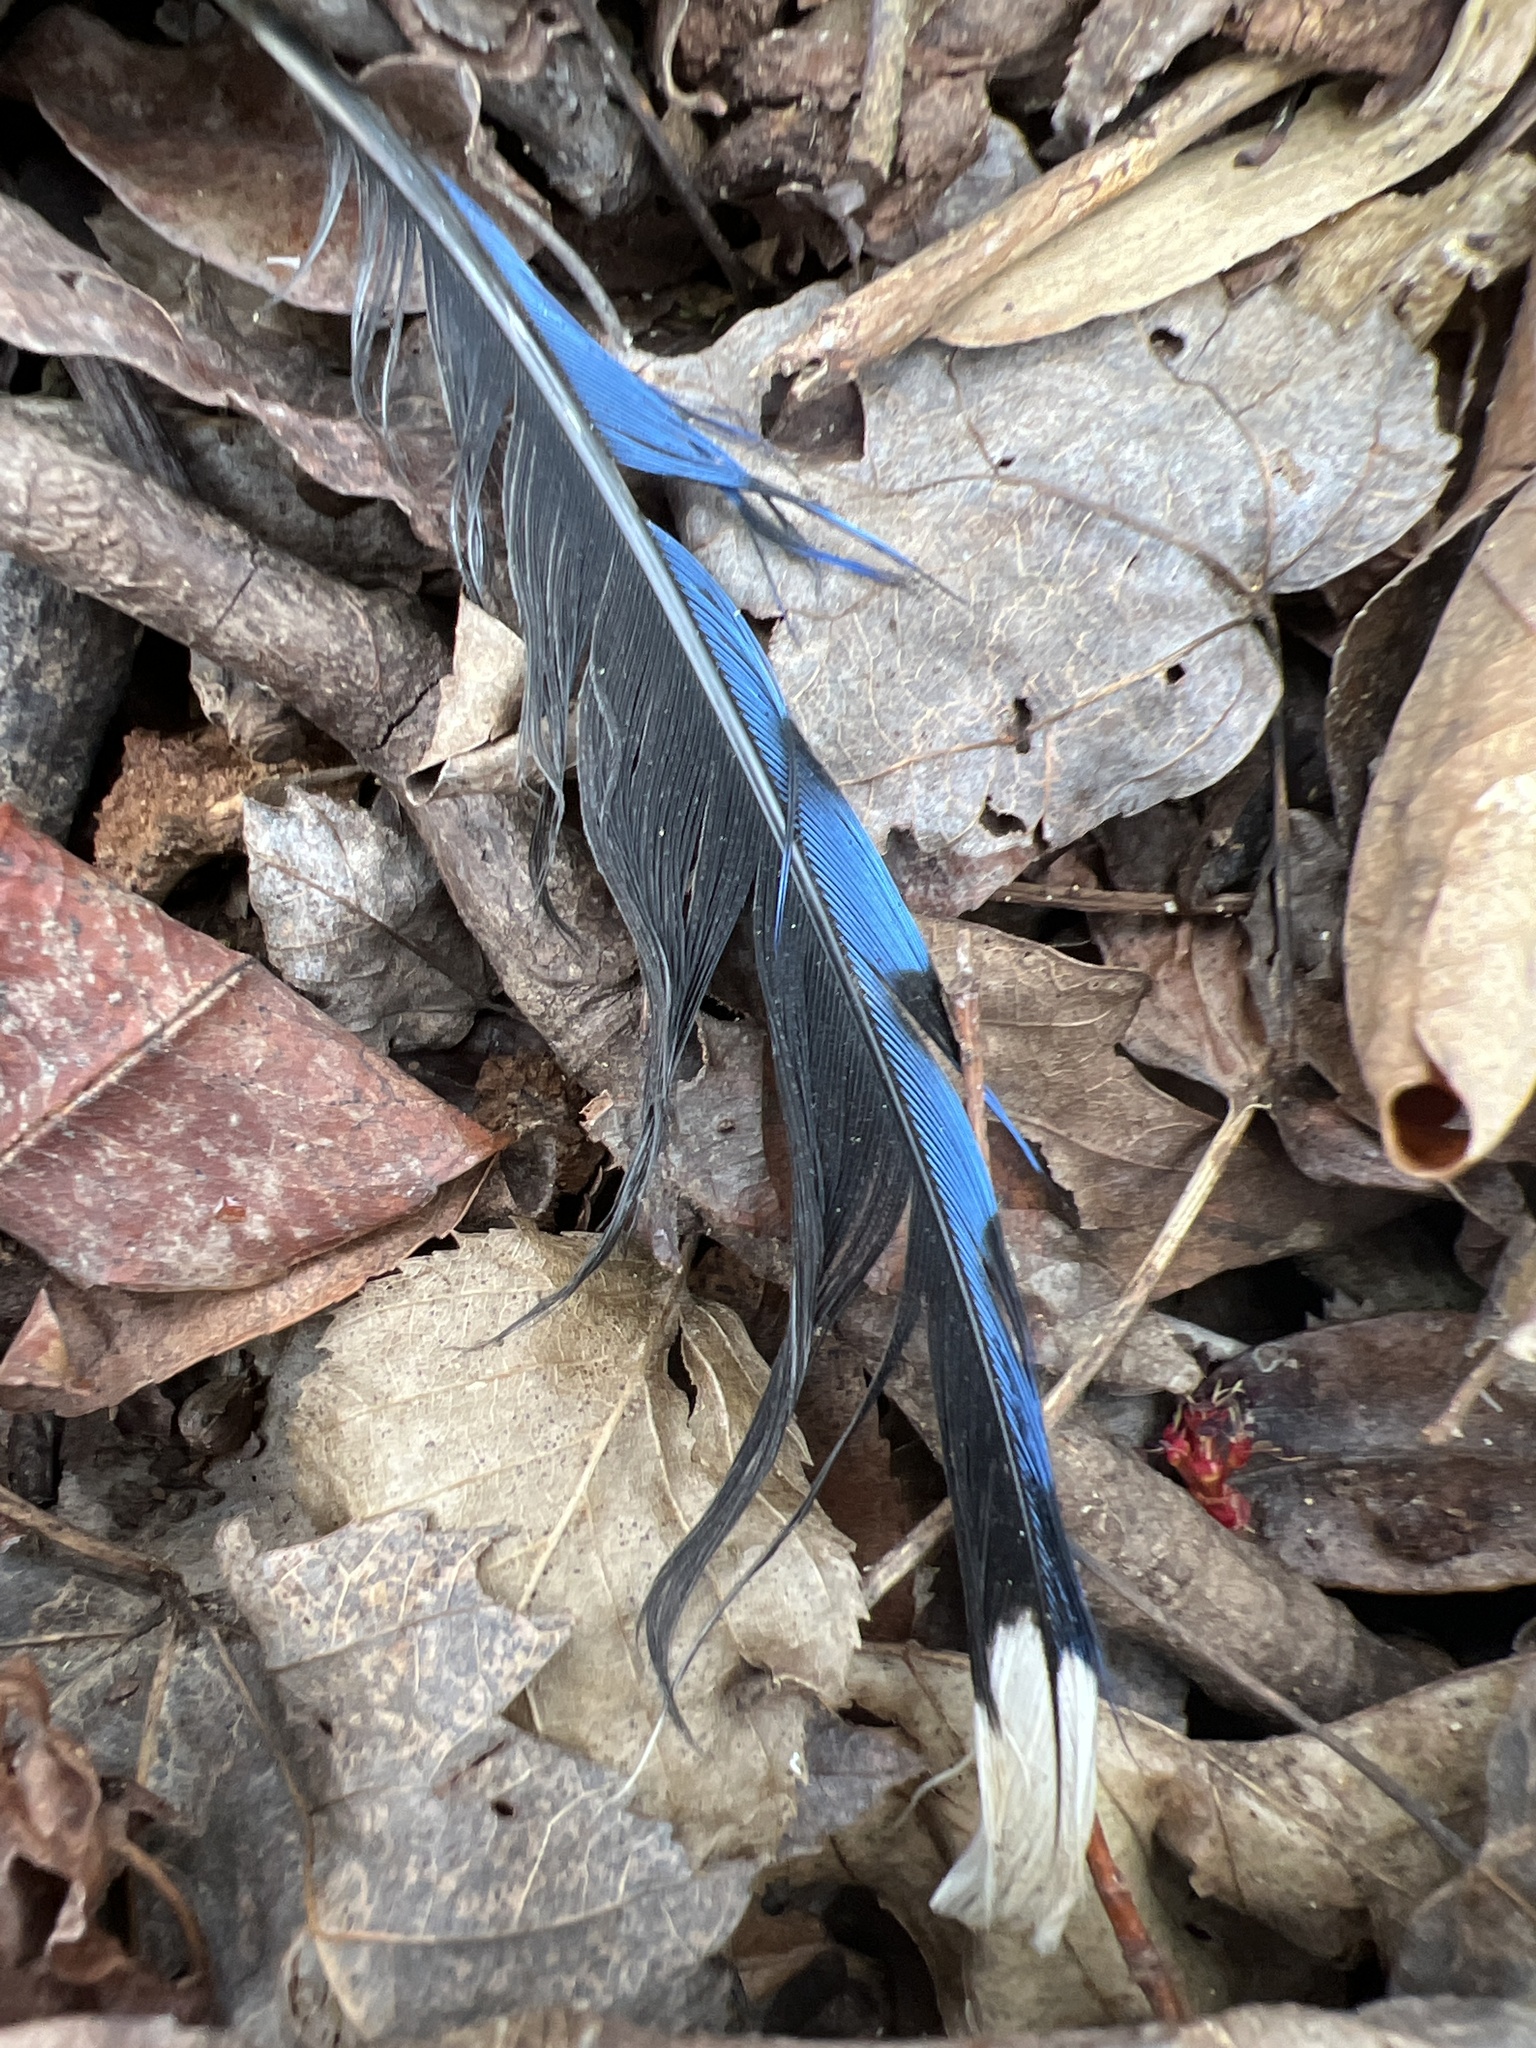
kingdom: Animalia
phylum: Chordata
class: Aves
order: Passeriformes
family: Corvidae
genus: Cyanocitta
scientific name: Cyanocitta cristata
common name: Blue jay
